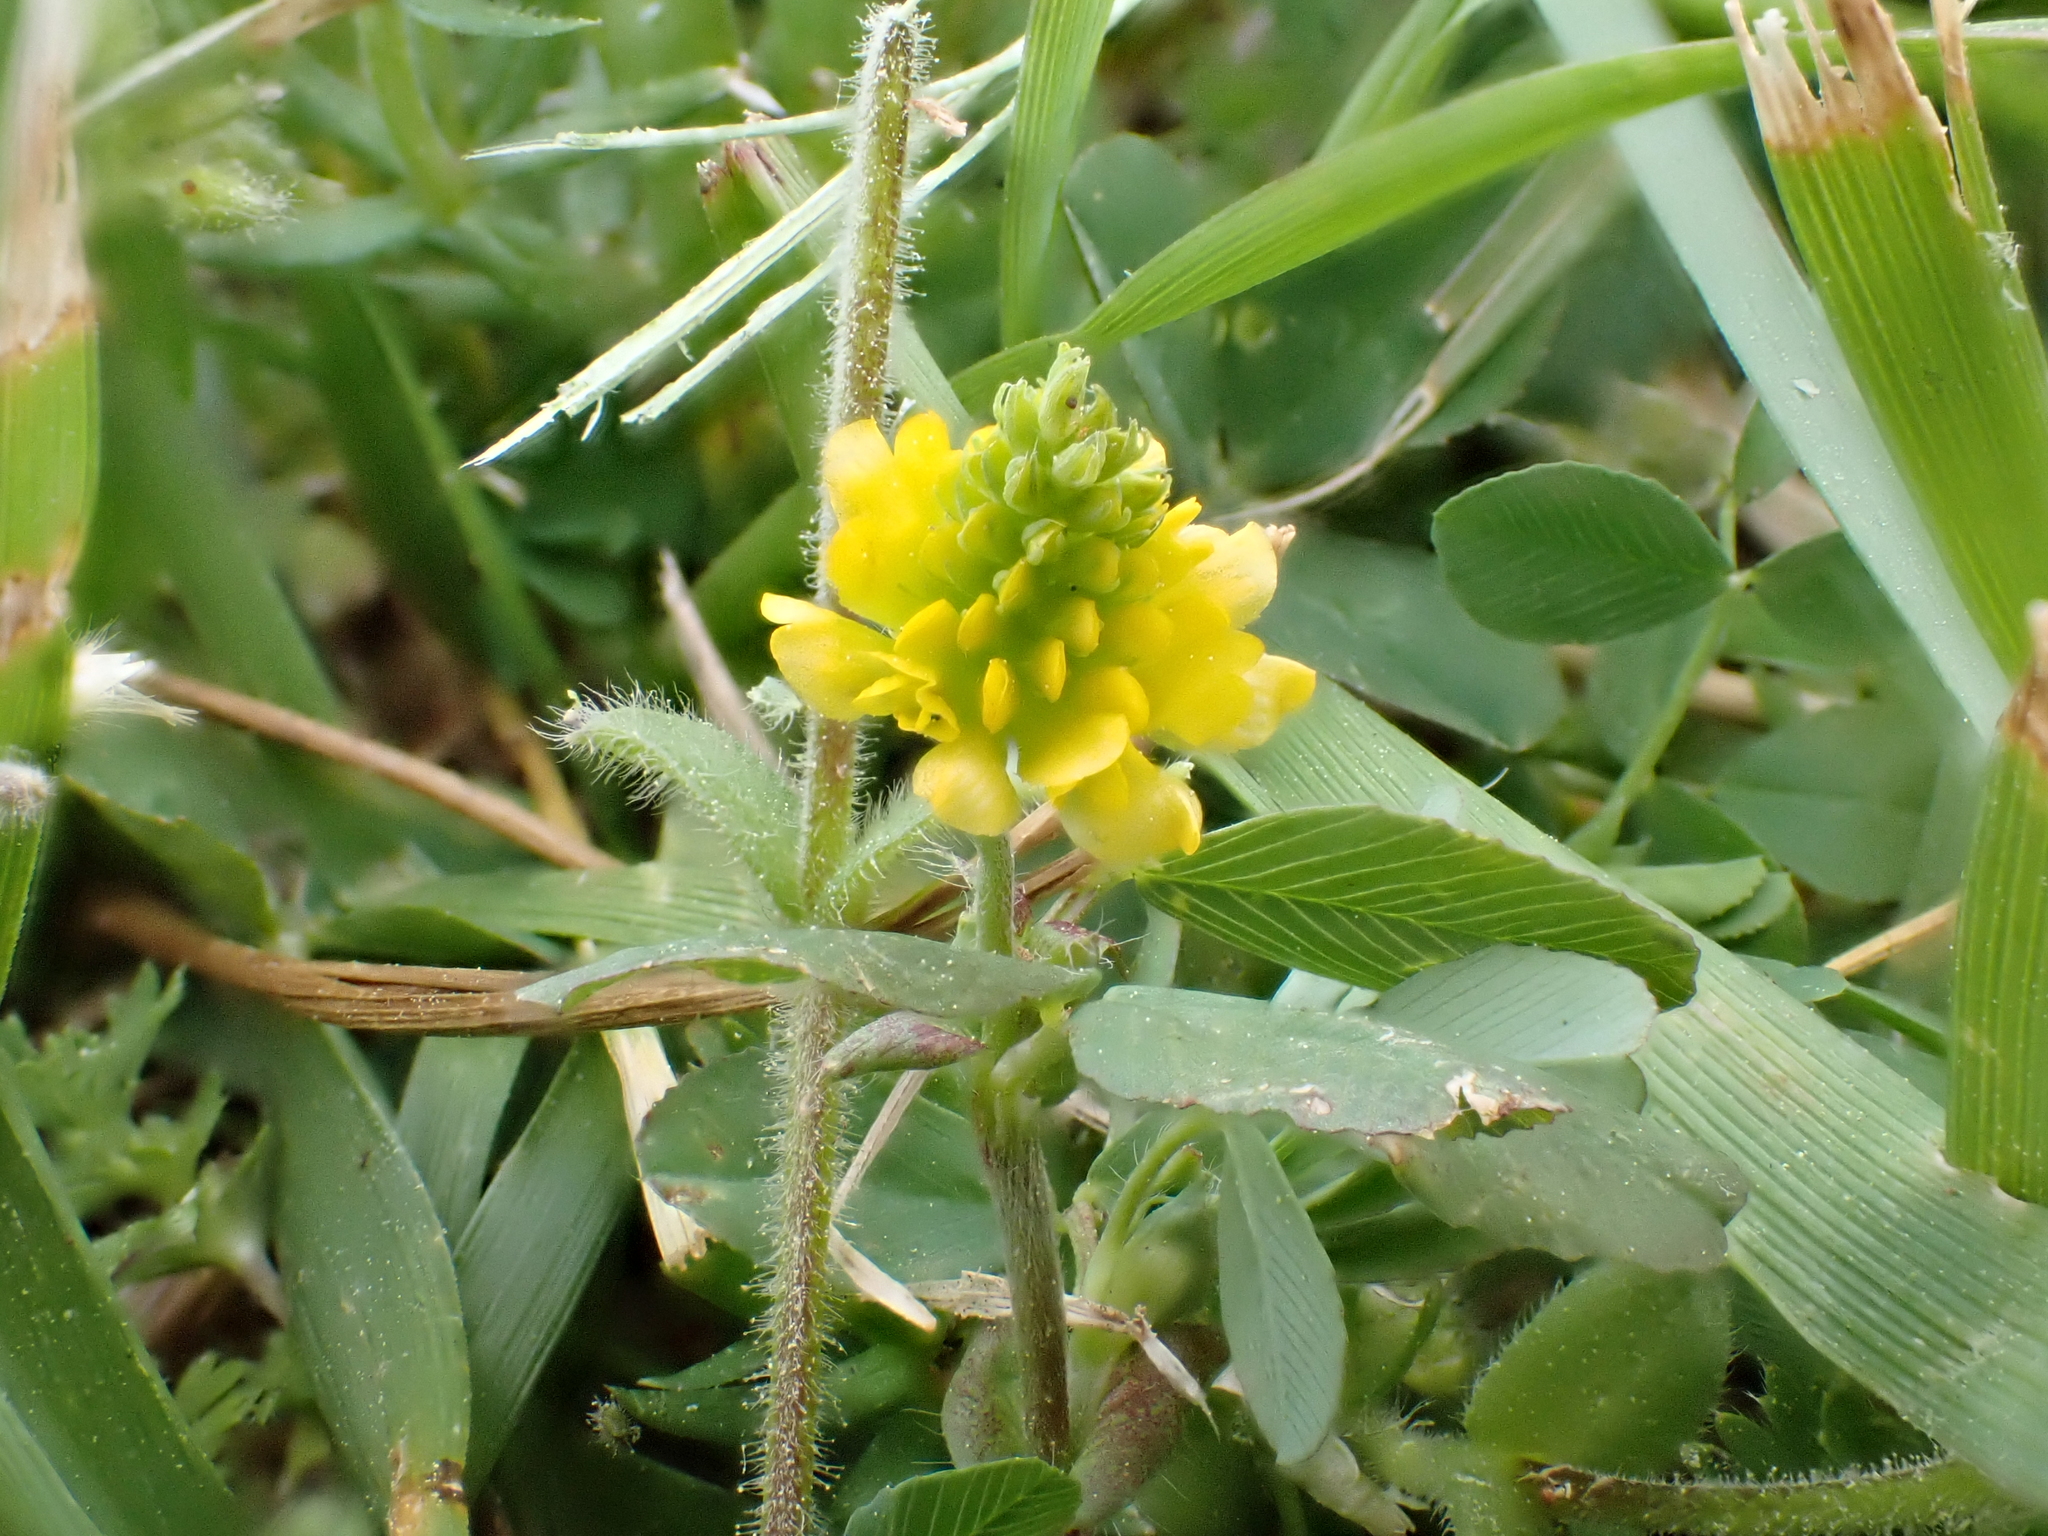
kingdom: Plantae
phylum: Tracheophyta
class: Magnoliopsida
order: Fabales
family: Fabaceae
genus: Trifolium
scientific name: Trifolium campestre
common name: Field clover
